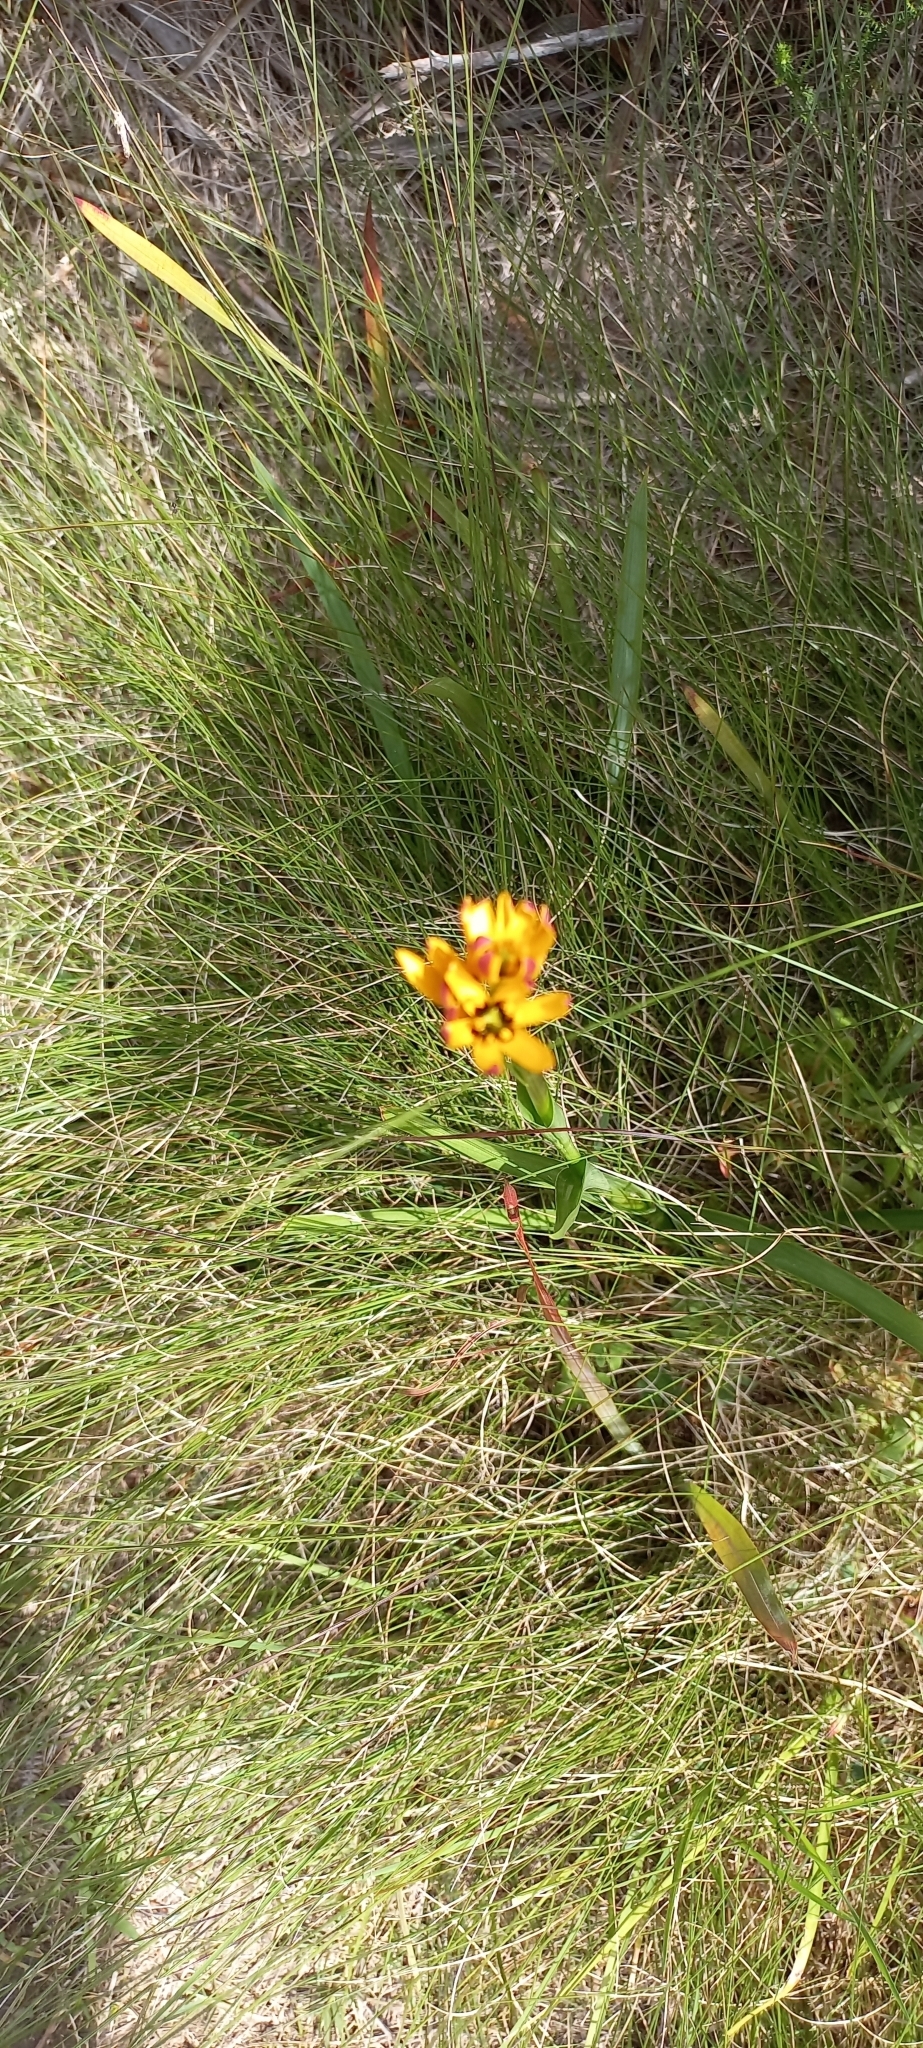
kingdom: Plantae
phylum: Tracheophyta
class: Liliopsida
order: Liliales
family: Colchicaceae
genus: Baeometra
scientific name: Baeometra uniflora
